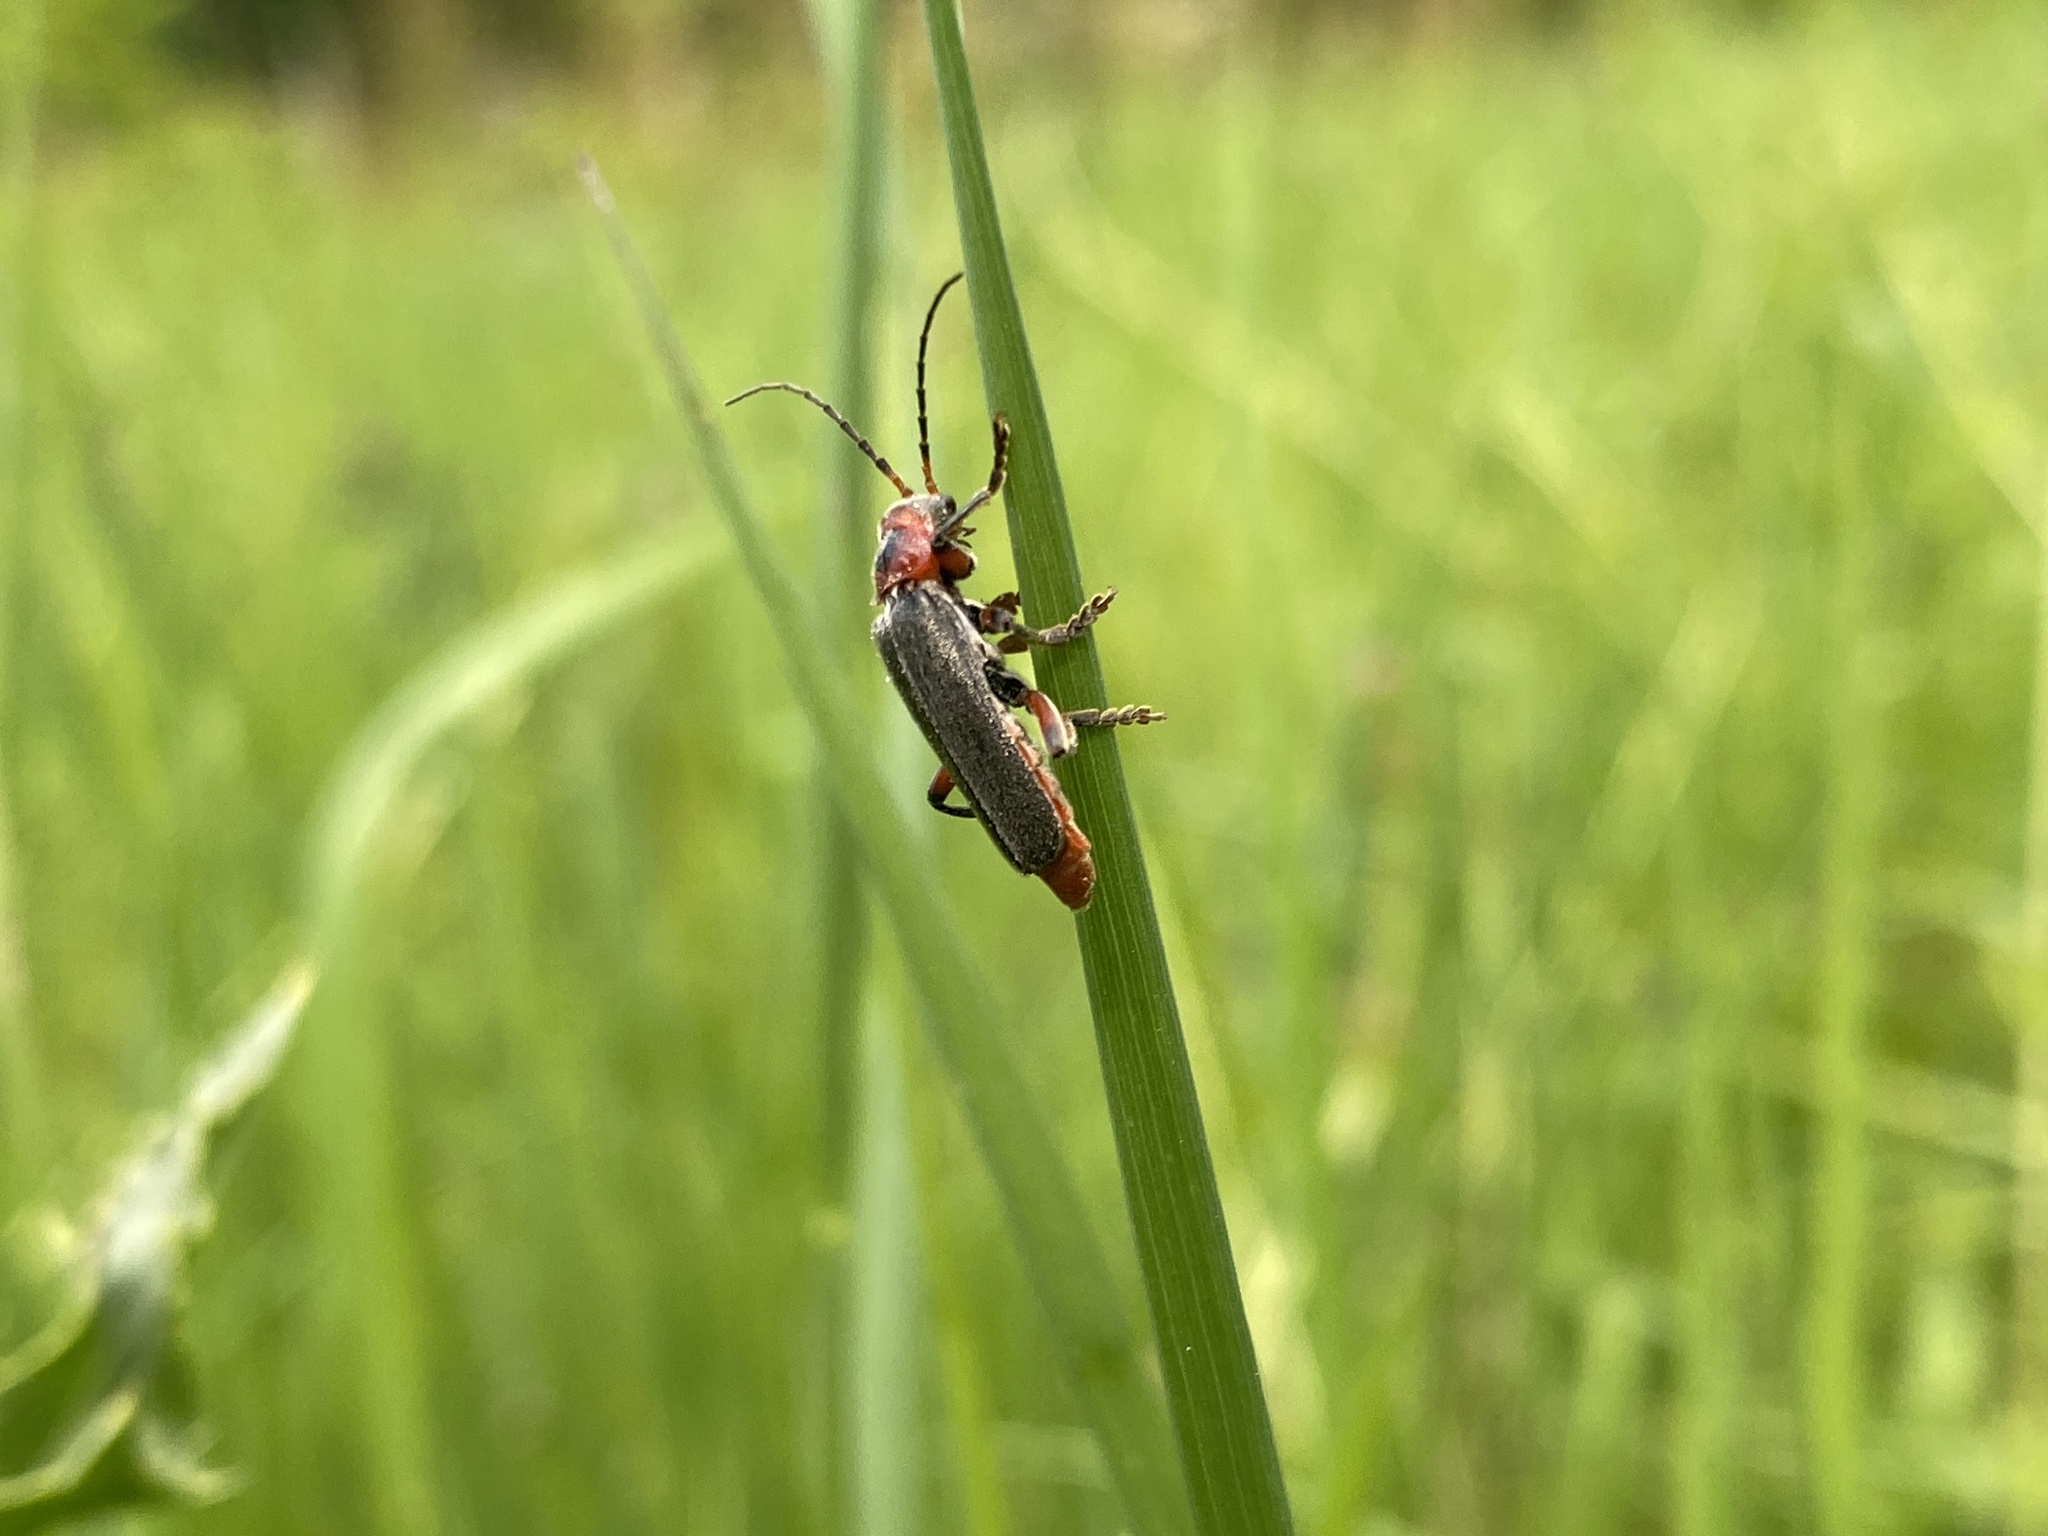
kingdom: Animalia
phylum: Arthropoda
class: Insecta
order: Coleoptera
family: Cantharidae
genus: Cantharis
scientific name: Cantharis rustica
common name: Soldier beetle
